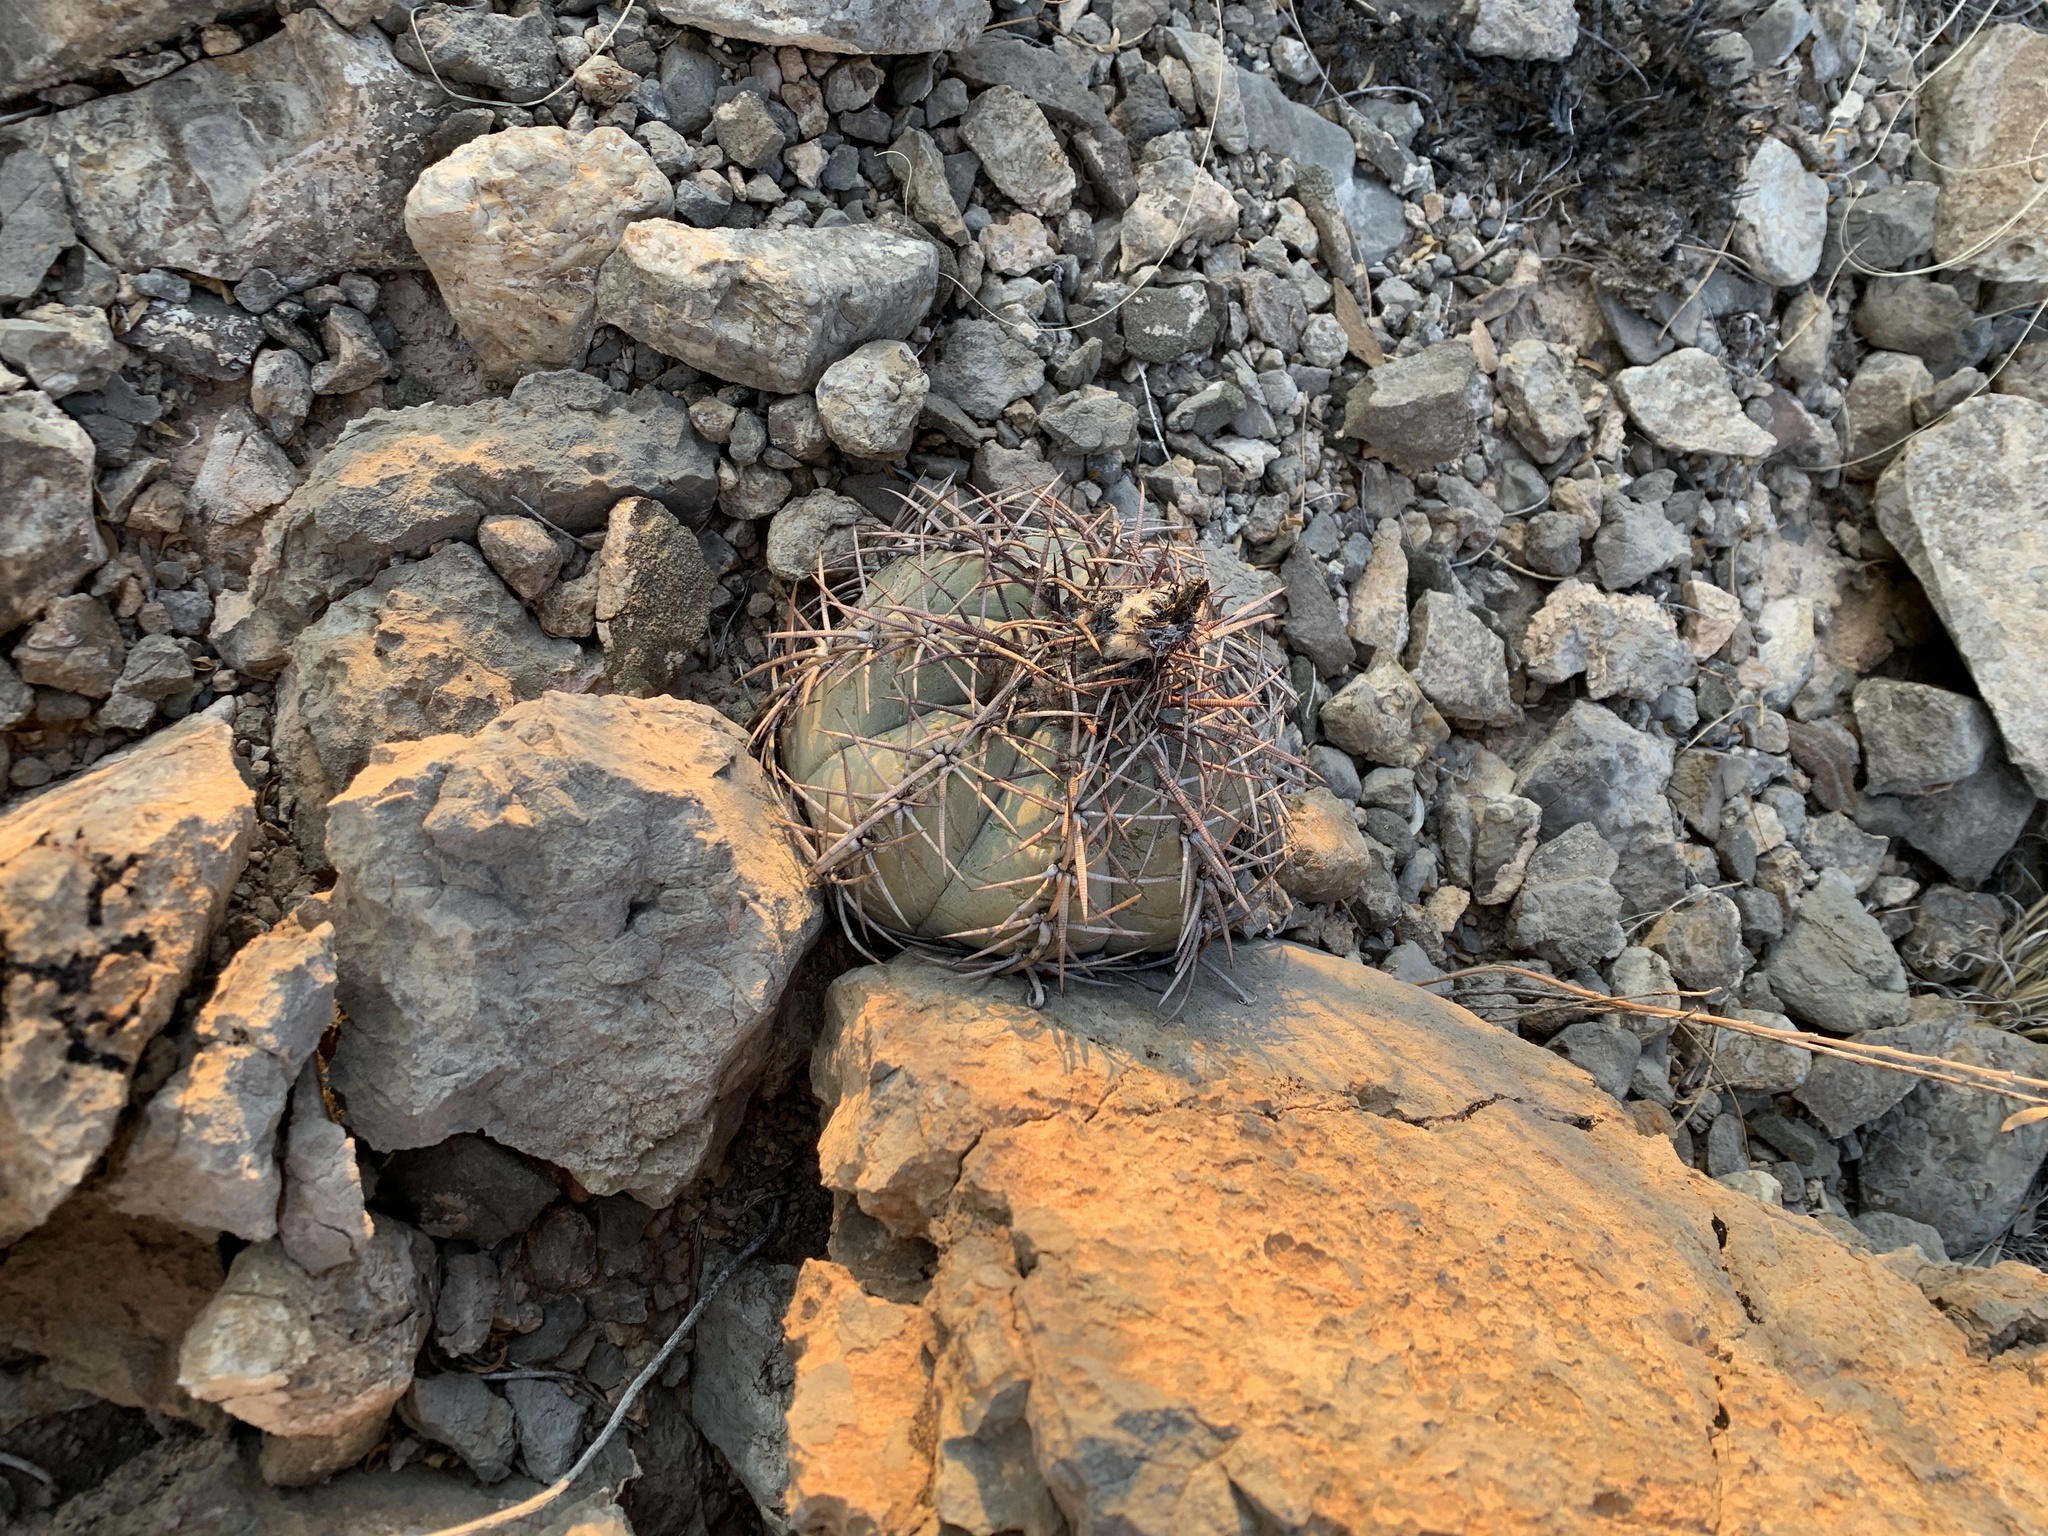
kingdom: Plantae
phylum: Tracheophyta
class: Magnoliopsida
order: Caryophyllales
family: Cactaceae
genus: Echinocactus
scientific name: Echinocactus horizonthalonius
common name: Devilshead
